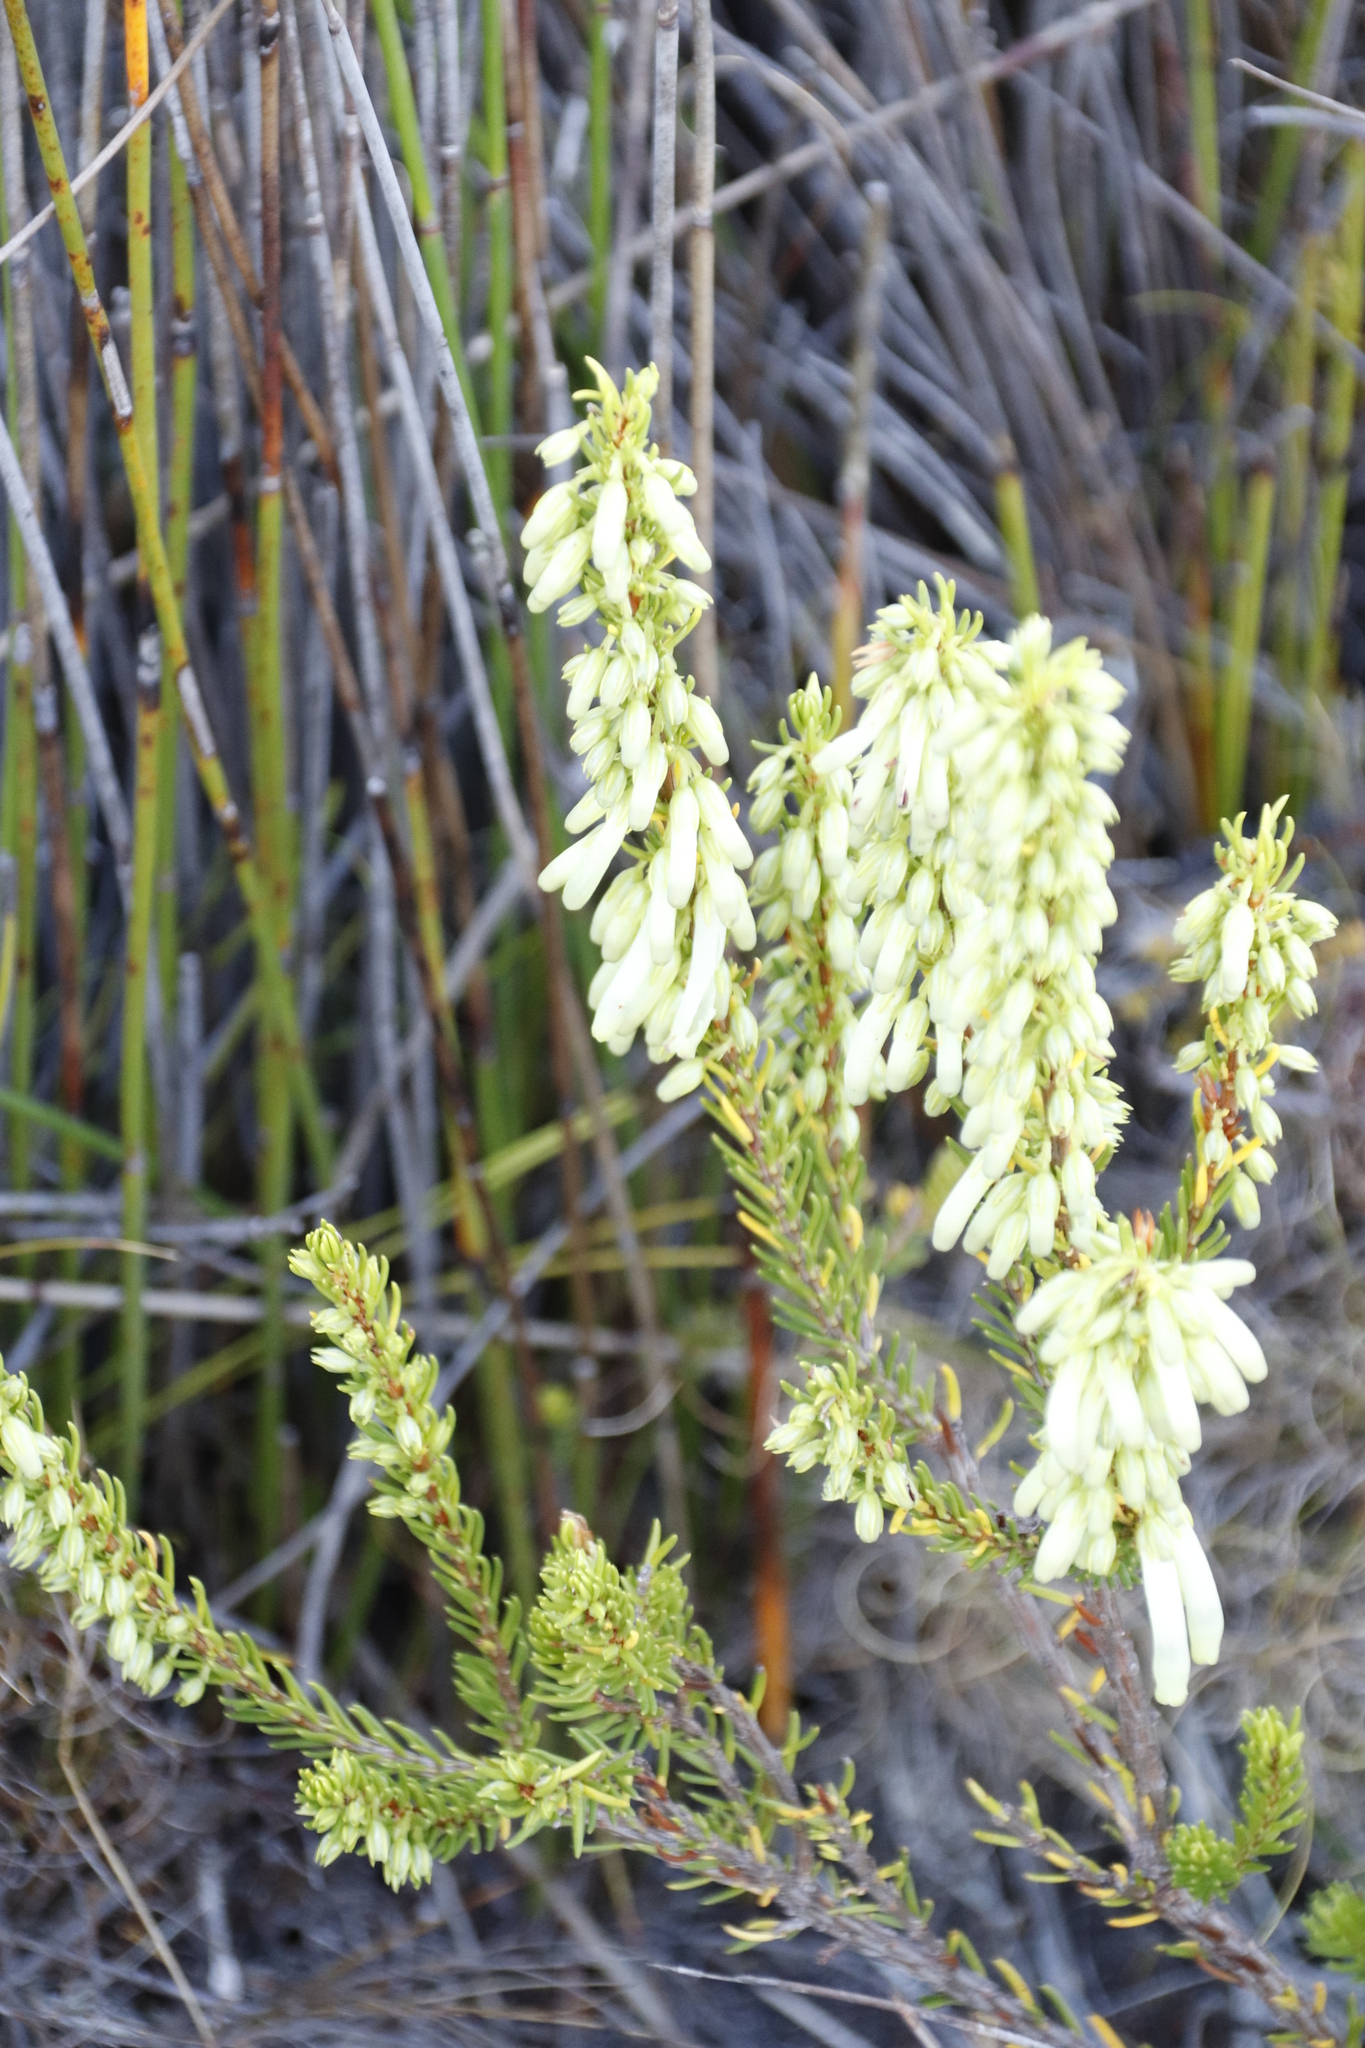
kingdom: Plantae
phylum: Tracheophyta
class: Magnoliopsida
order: Ericales
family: Ericaceae
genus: Erica
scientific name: Erica mammosa
